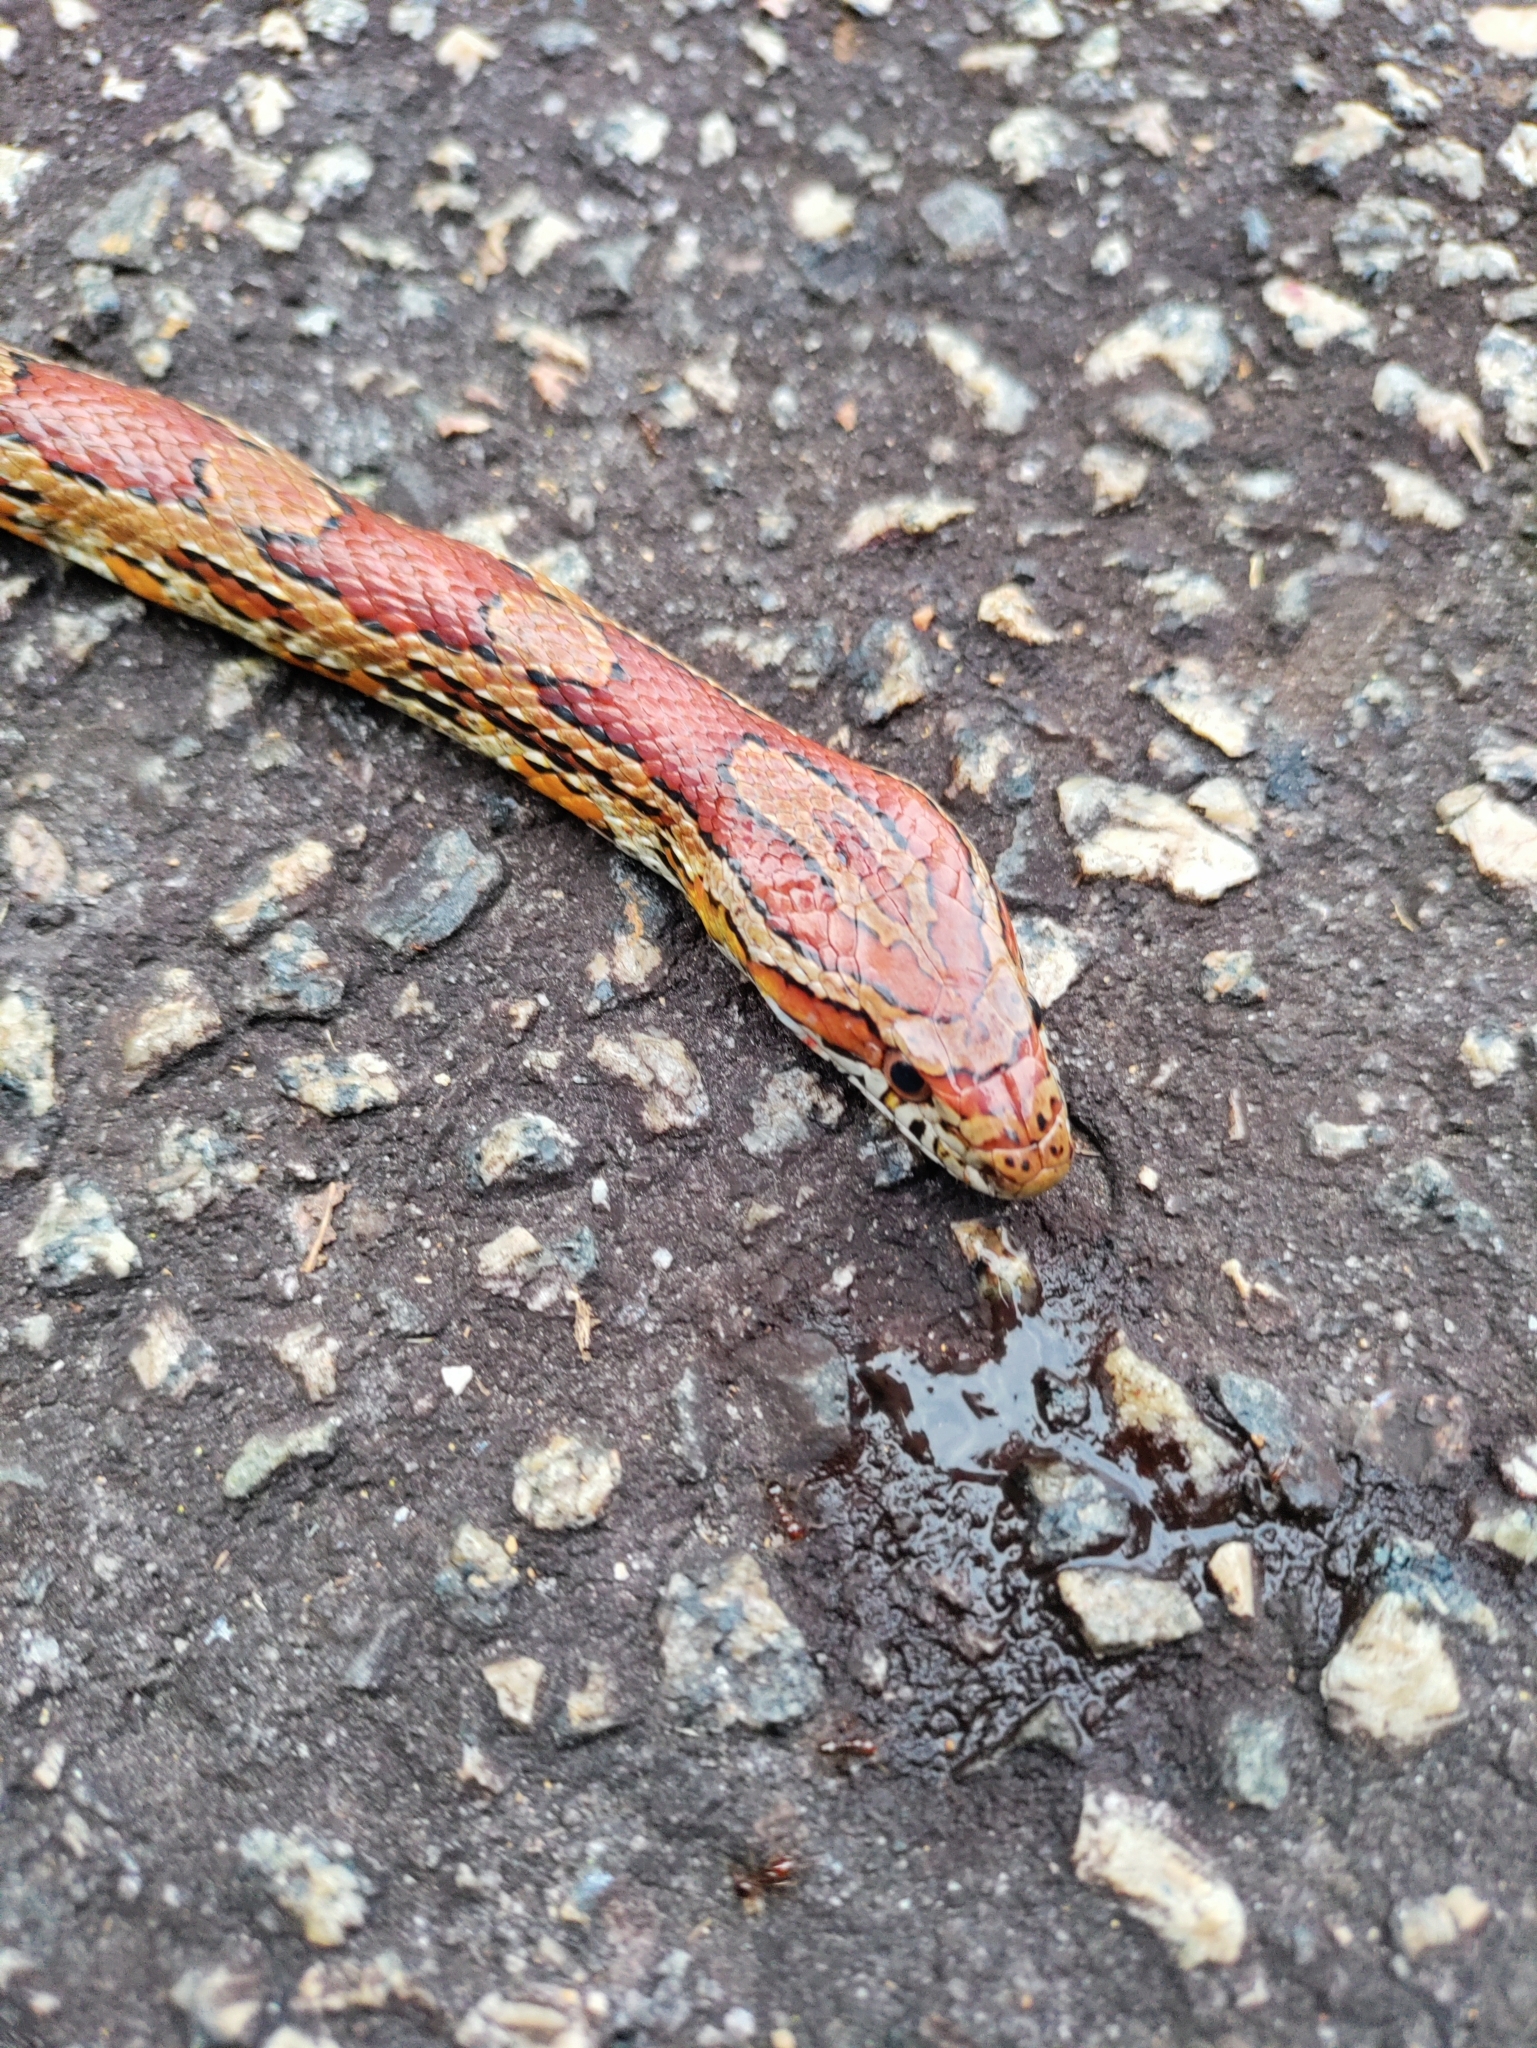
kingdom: Animalia
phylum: Chordata
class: Squamata
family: Colubridae
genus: Pantherophis
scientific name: Pantherophis guttatus
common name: Red cornsnake
